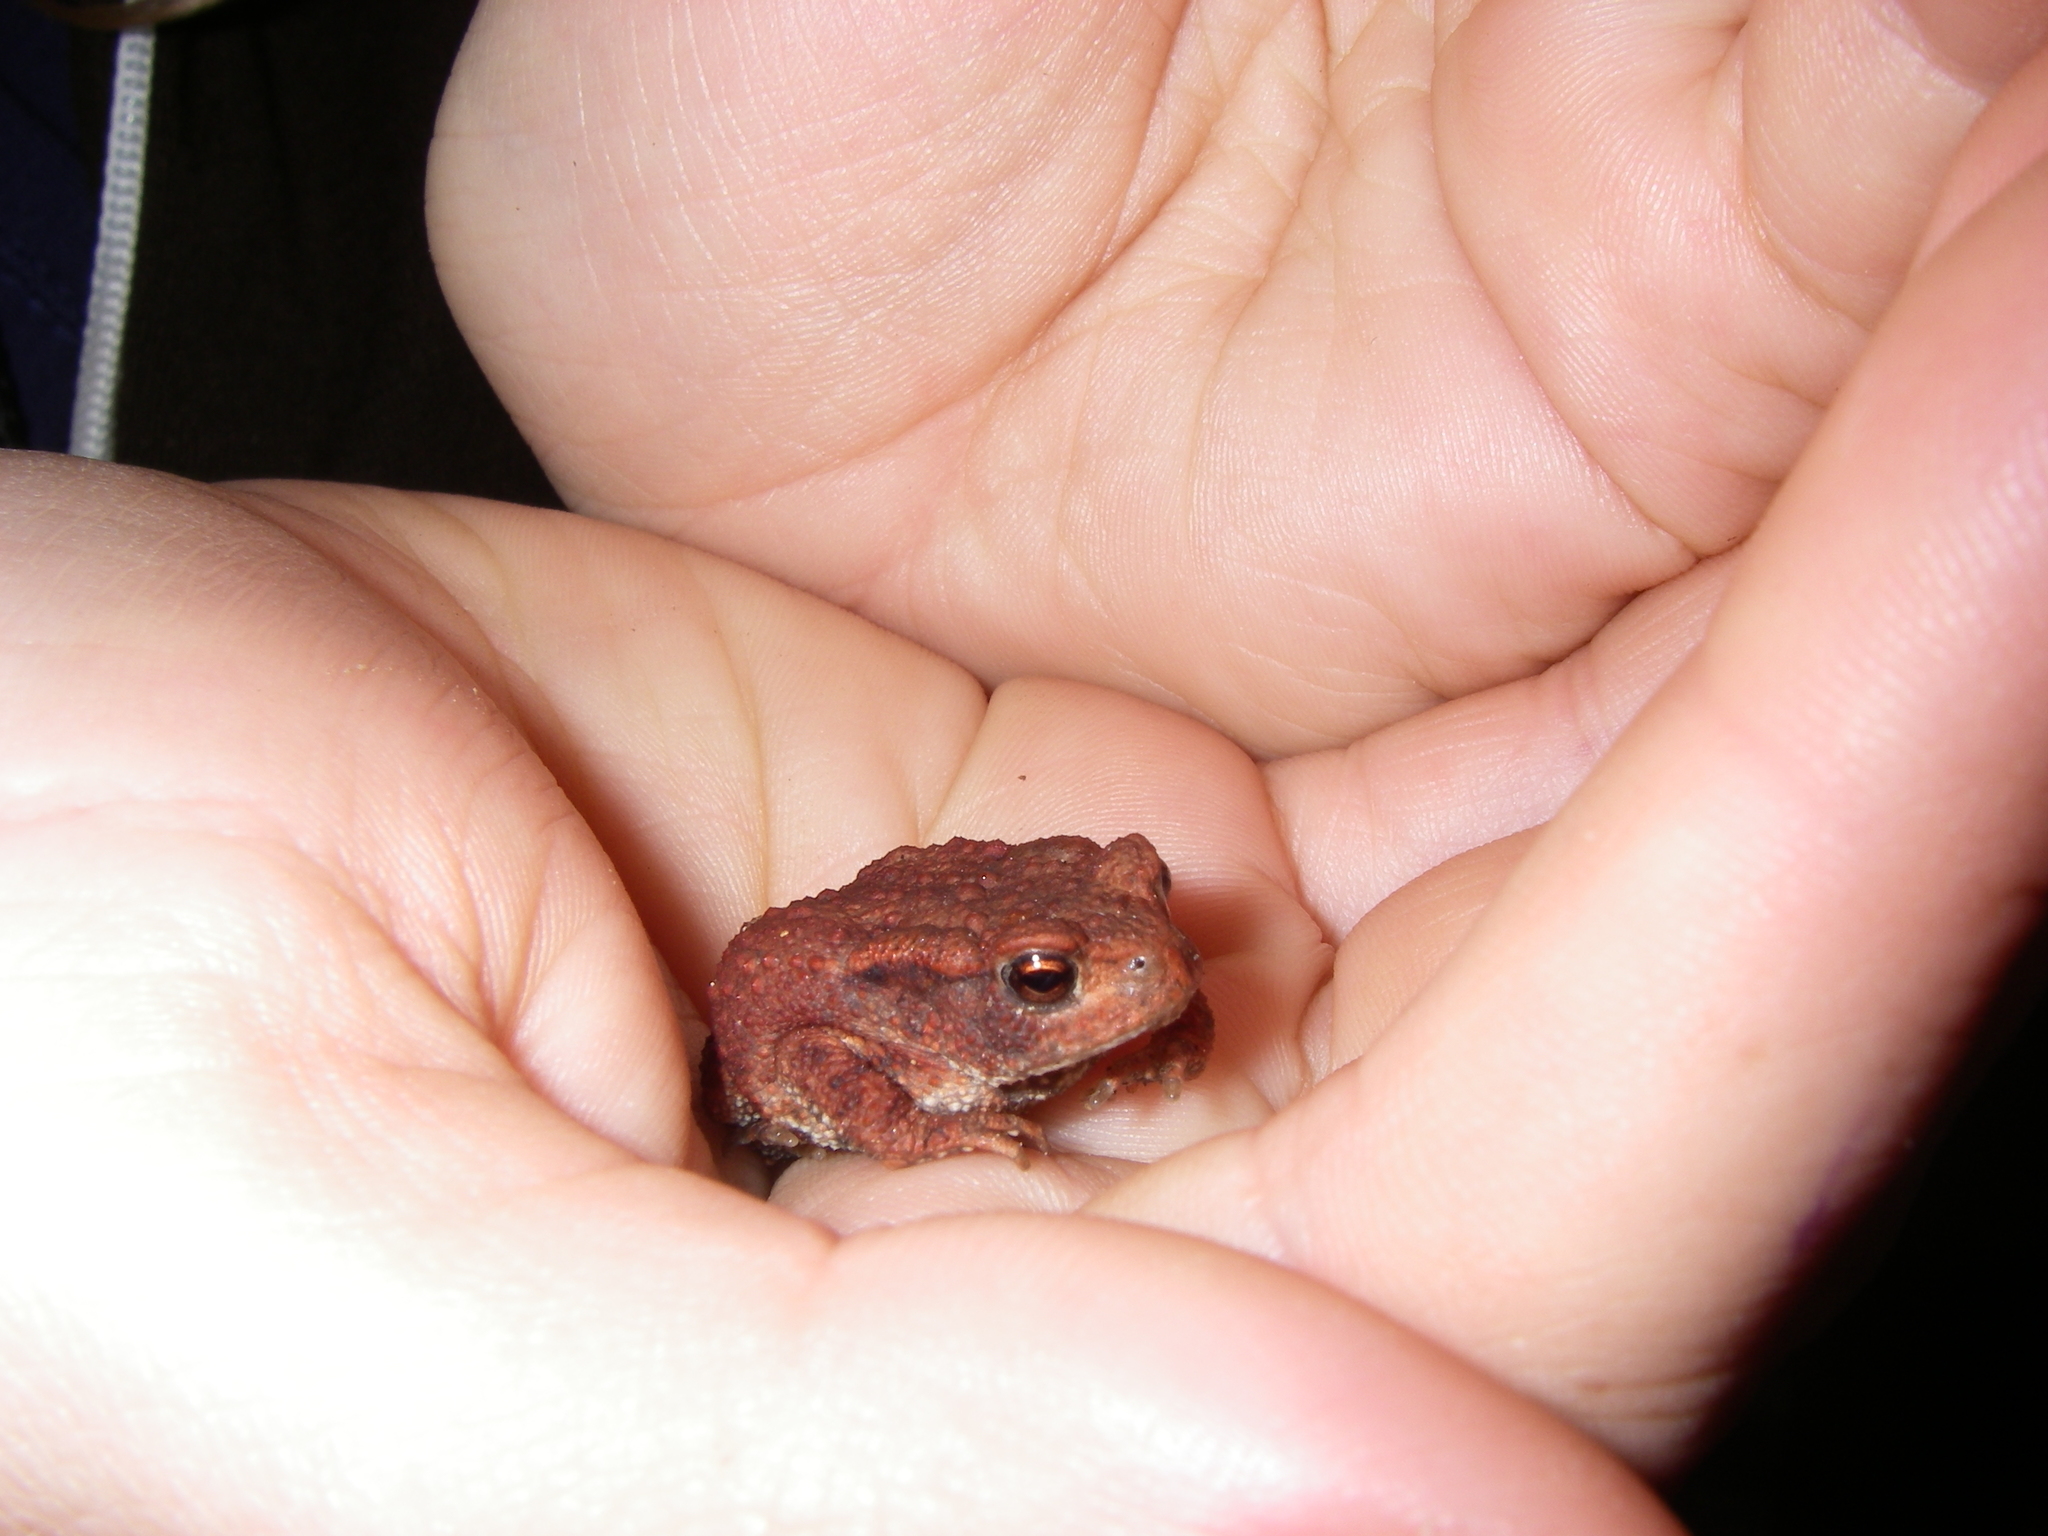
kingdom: Animalia
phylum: Chordata
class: Amphibia
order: Anura
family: Bufonidae
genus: Bufo
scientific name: Bufo bufo
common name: Common toad
